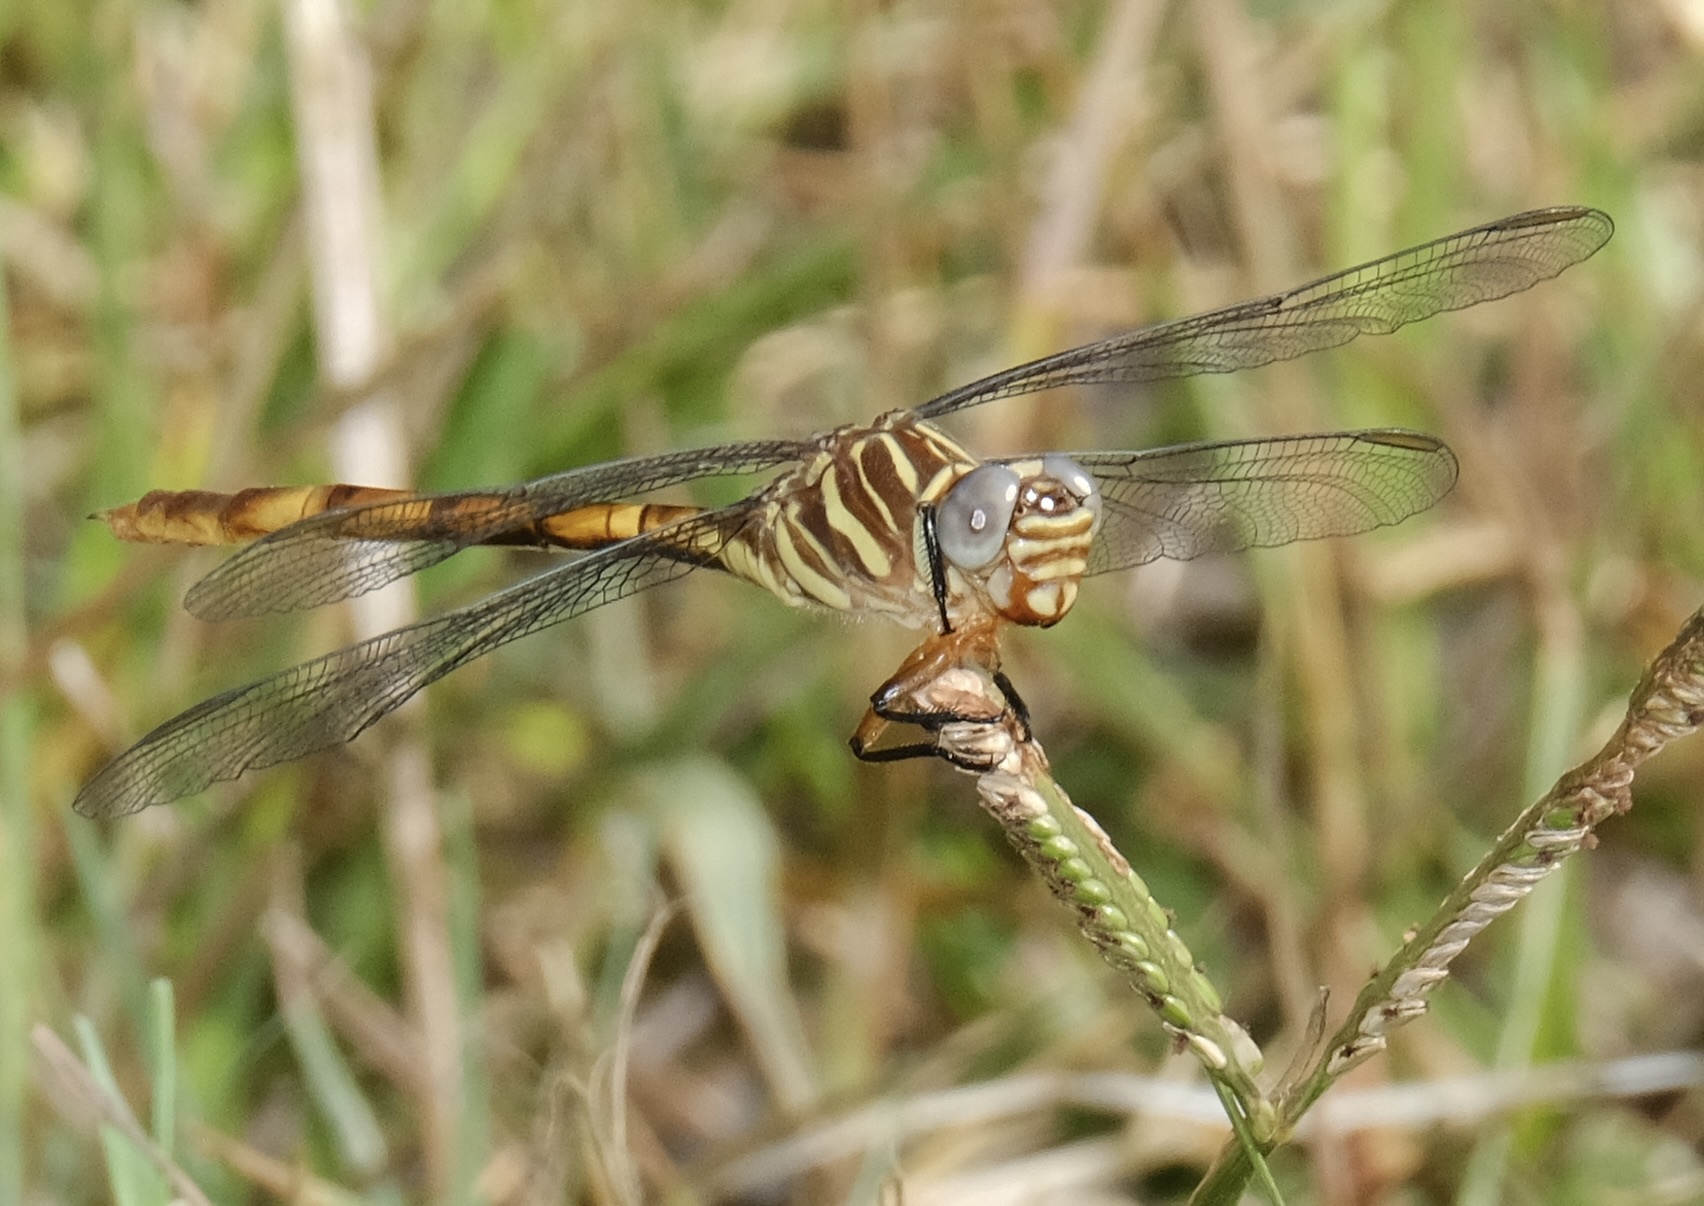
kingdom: Animalia
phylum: Arthropoda
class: Insecta
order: Odonata
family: Gomphidae
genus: Aphylla
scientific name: Aphylla angustifolia
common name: Broad-striped forceptail
